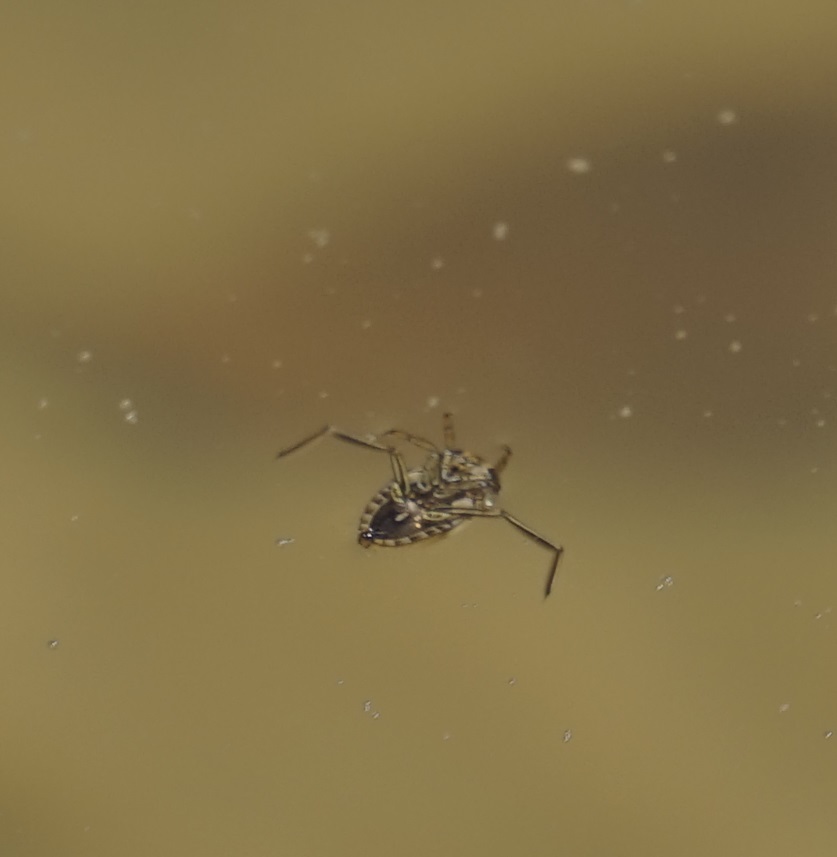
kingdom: Animalia
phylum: Arthropoda
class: Insecta
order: Hemiptera
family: Notonectidae
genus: Enithares
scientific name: Enithares
